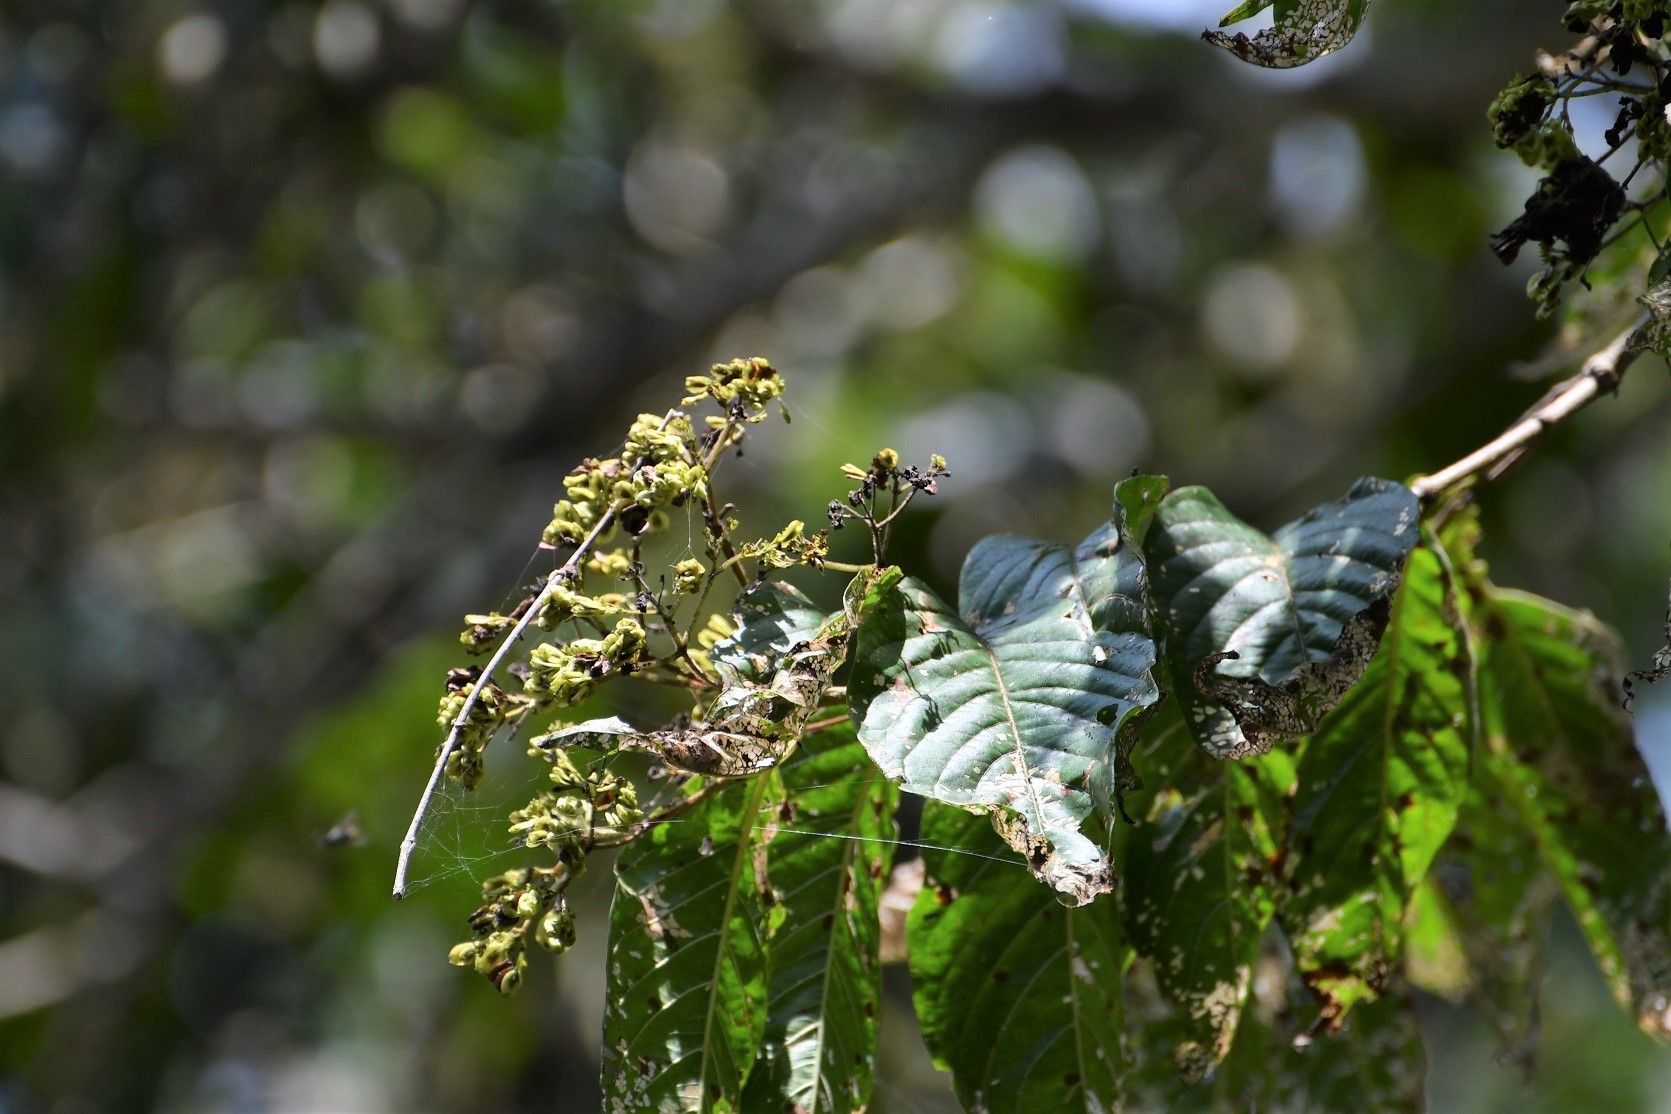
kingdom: Plantae
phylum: Tracheophyta
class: Magnoliopsida
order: Gentianales
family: Rubiaceae
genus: Machaonia
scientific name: Machaonia erythrocarpa
